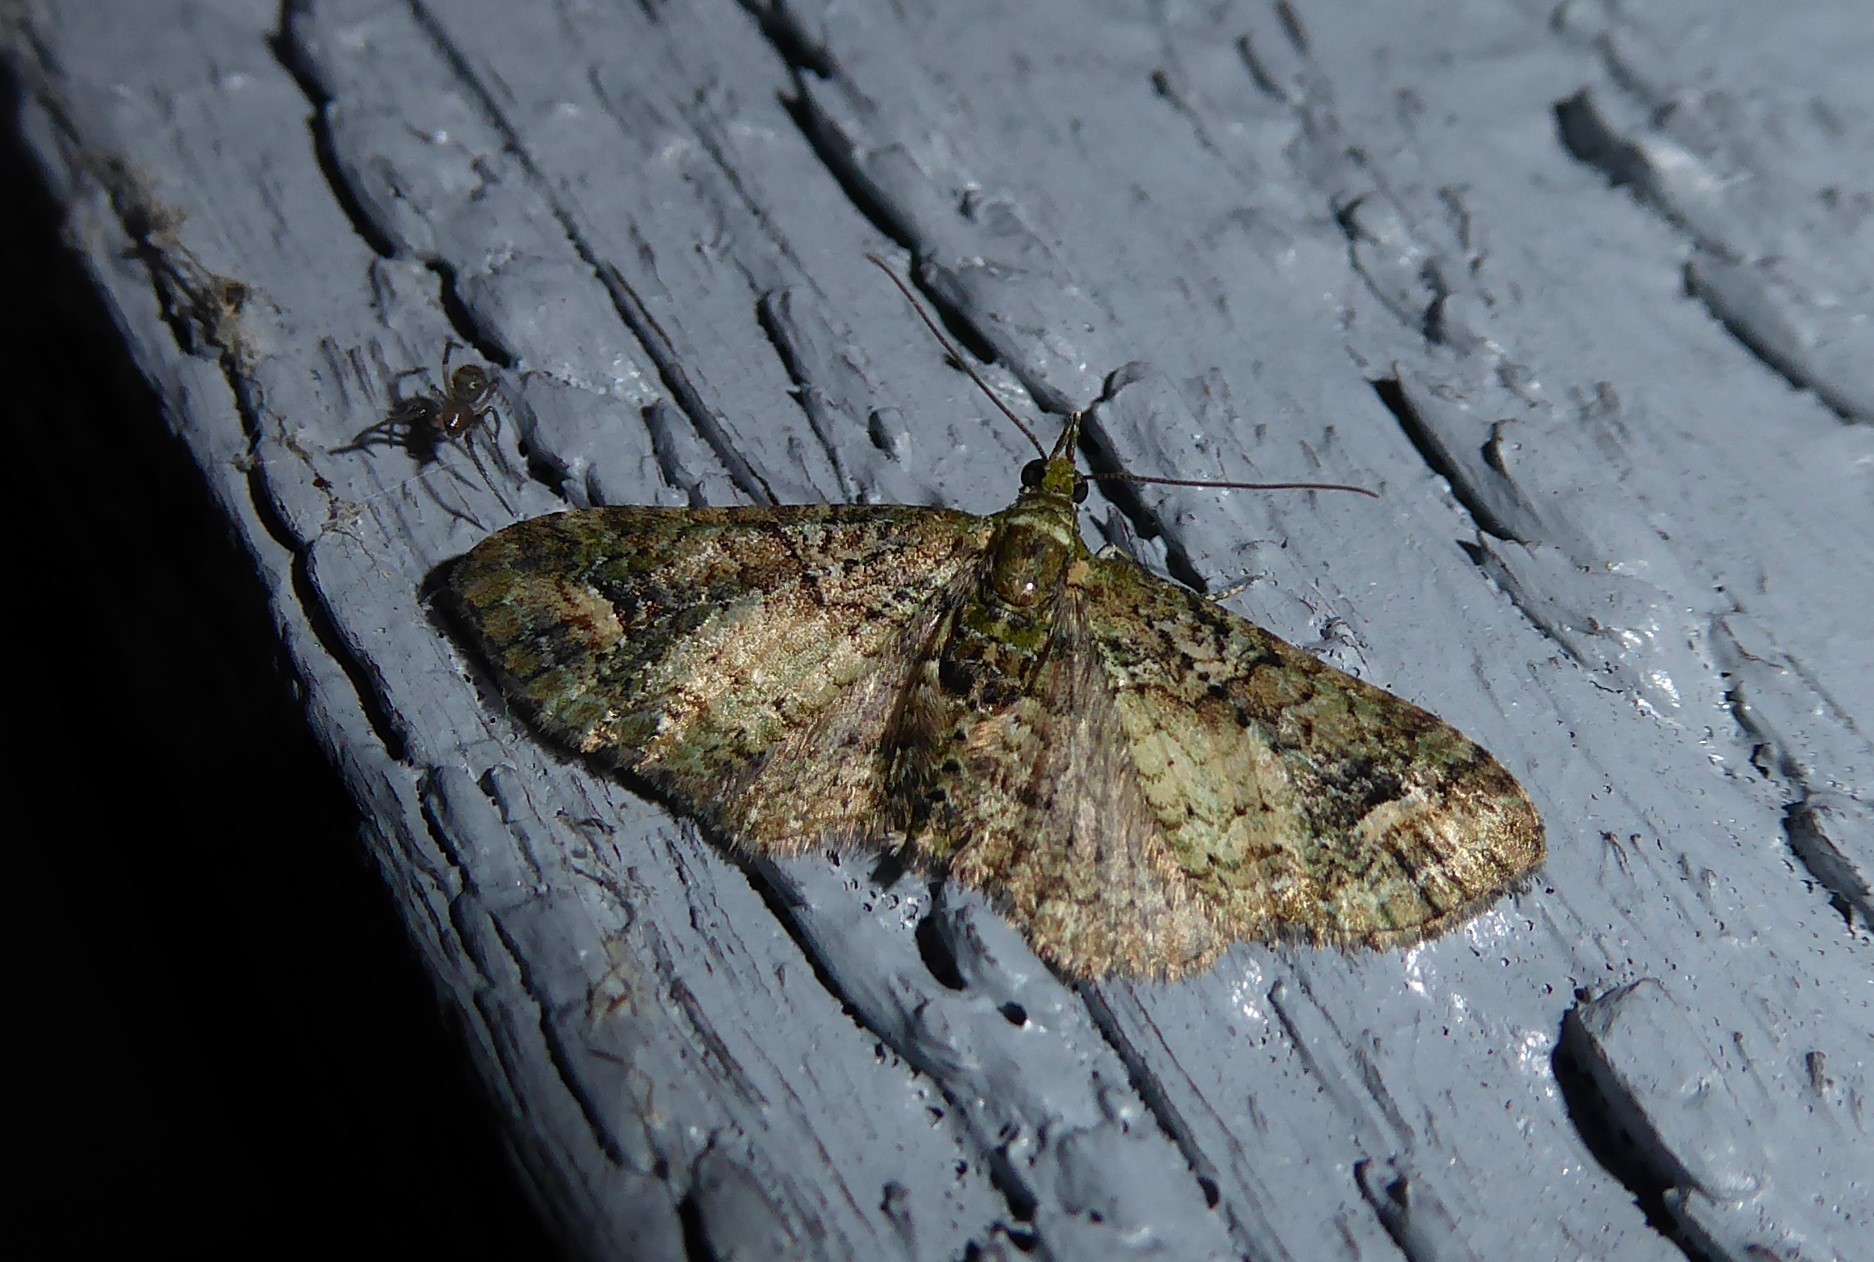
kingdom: Animalia
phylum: Arthropoda
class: Insecta
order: Lepidoptera
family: Geometridae
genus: Idaea
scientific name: Idaea mutanda
